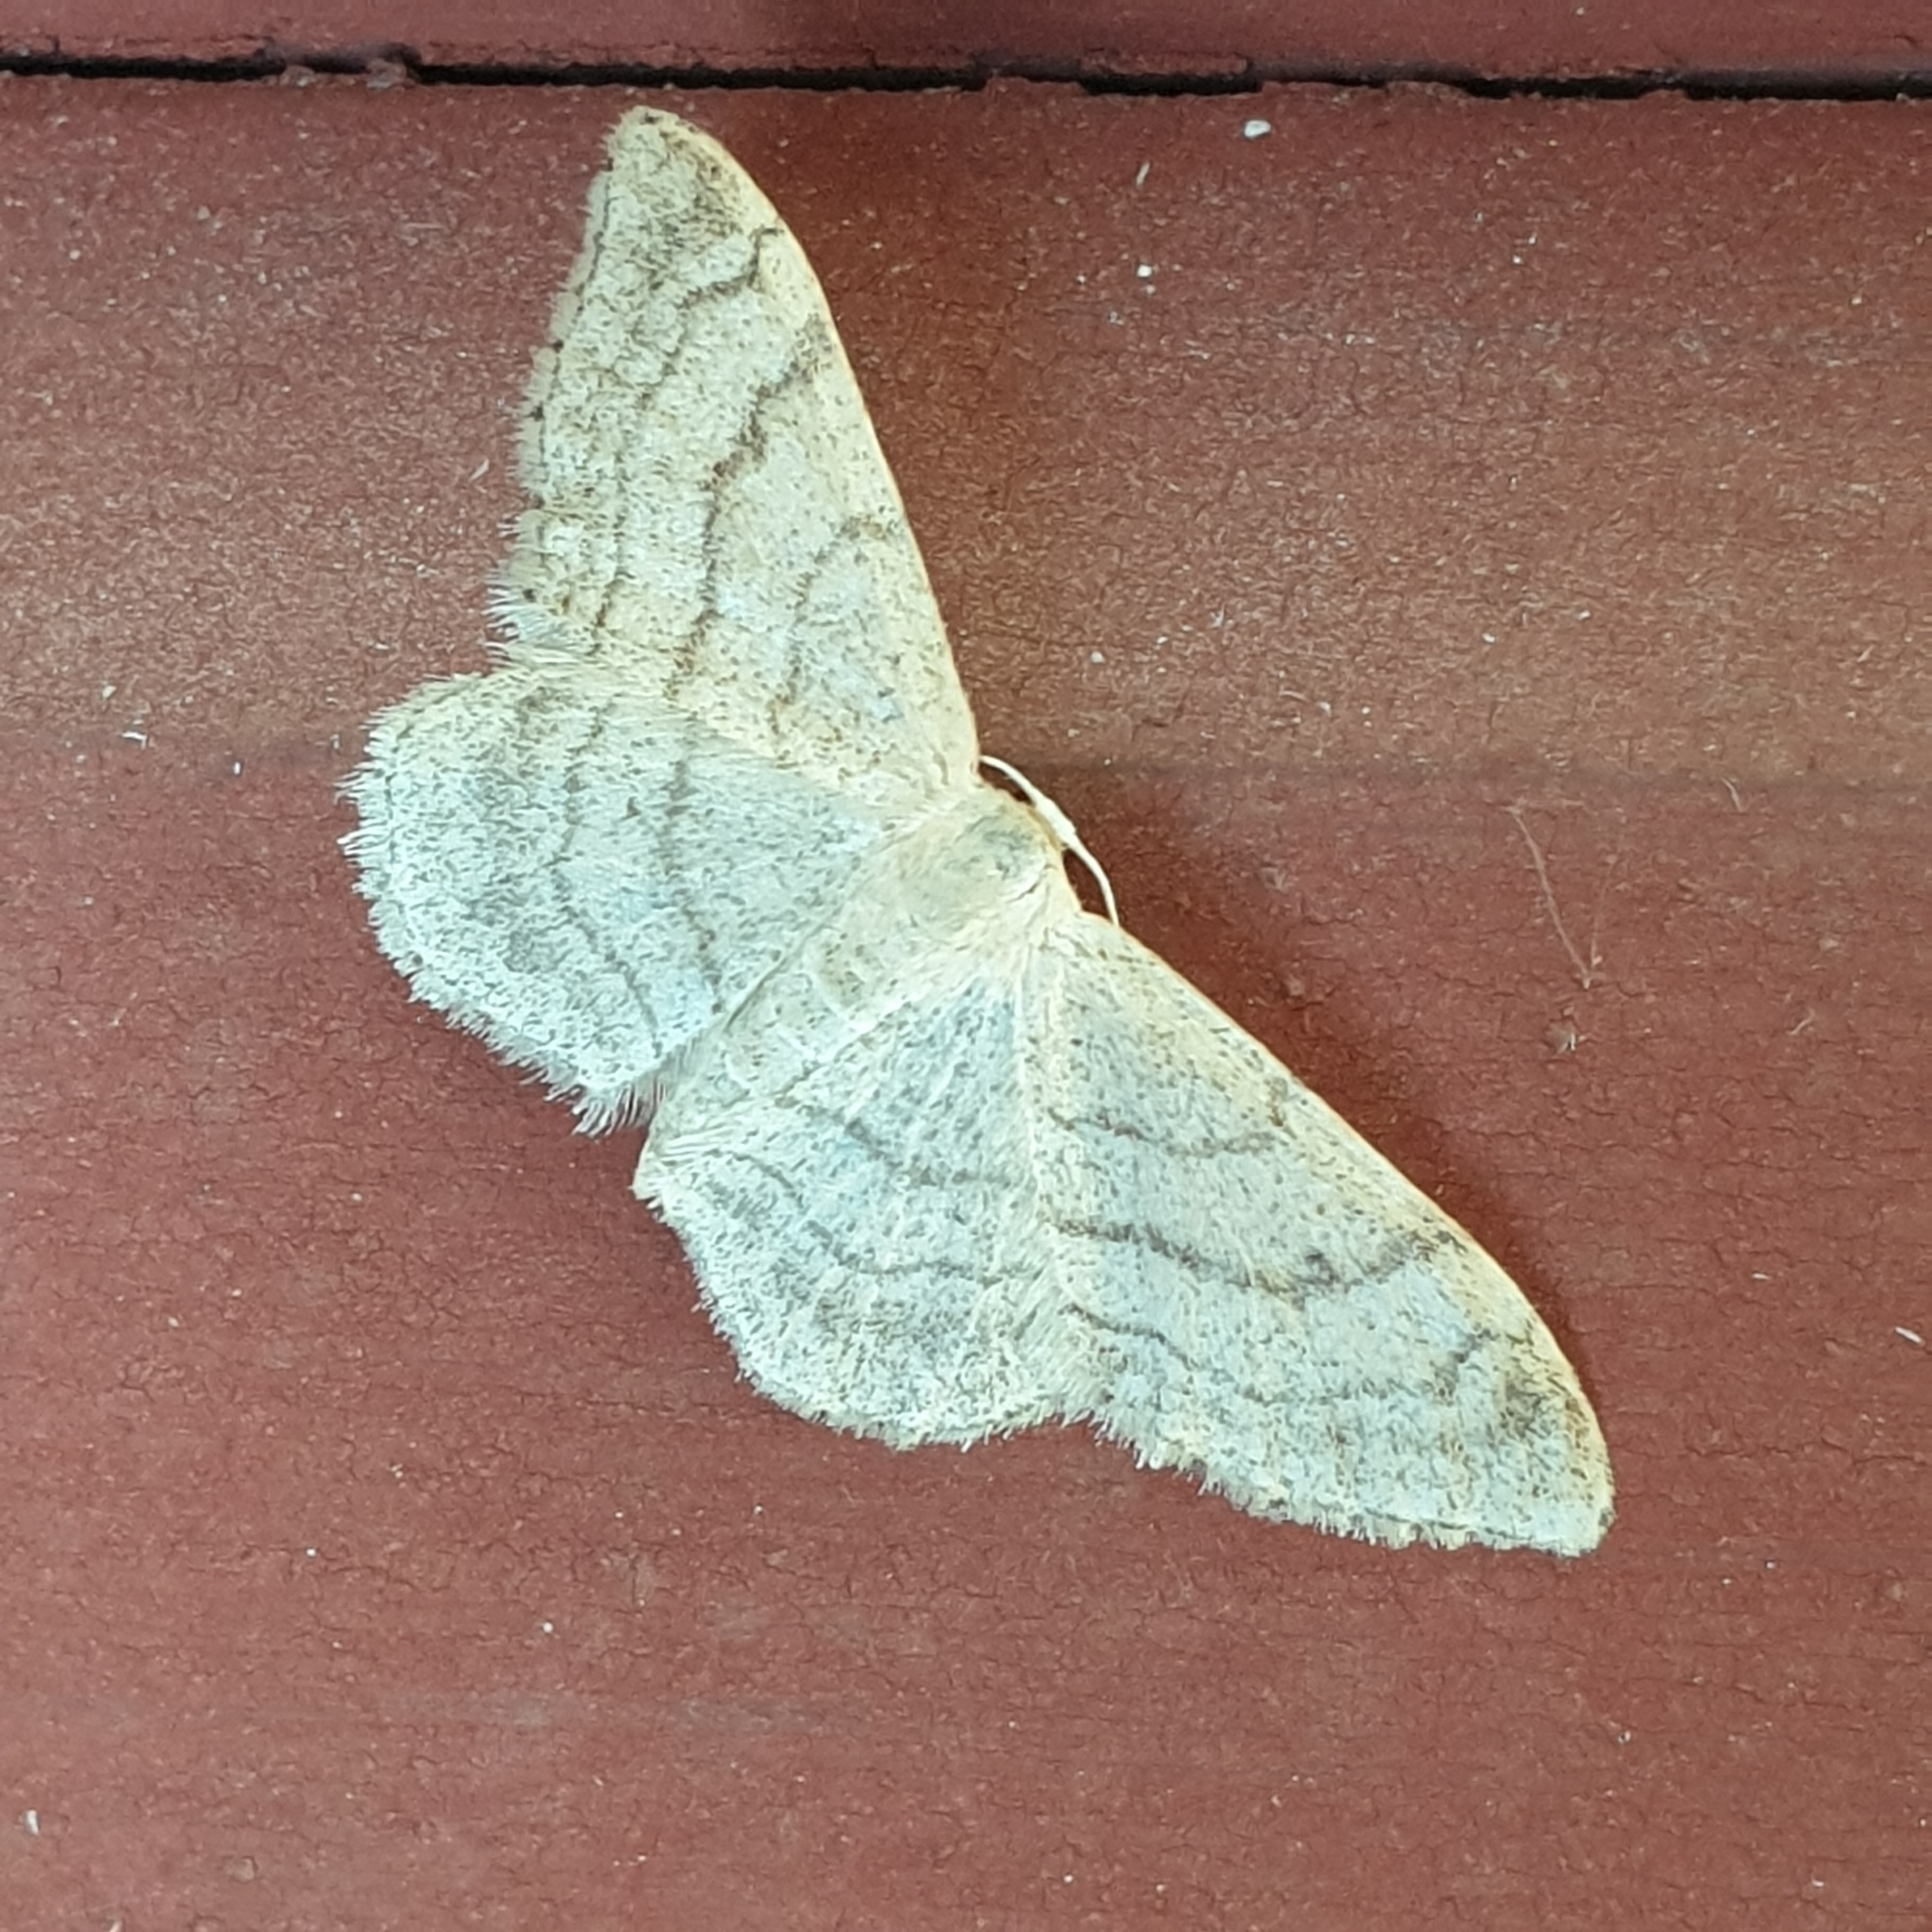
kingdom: Animalia
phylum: Arthropoda
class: Insecta
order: Lepidoptera
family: Geometridae
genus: Idaea
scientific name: Idaea aversata
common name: Riband wave
